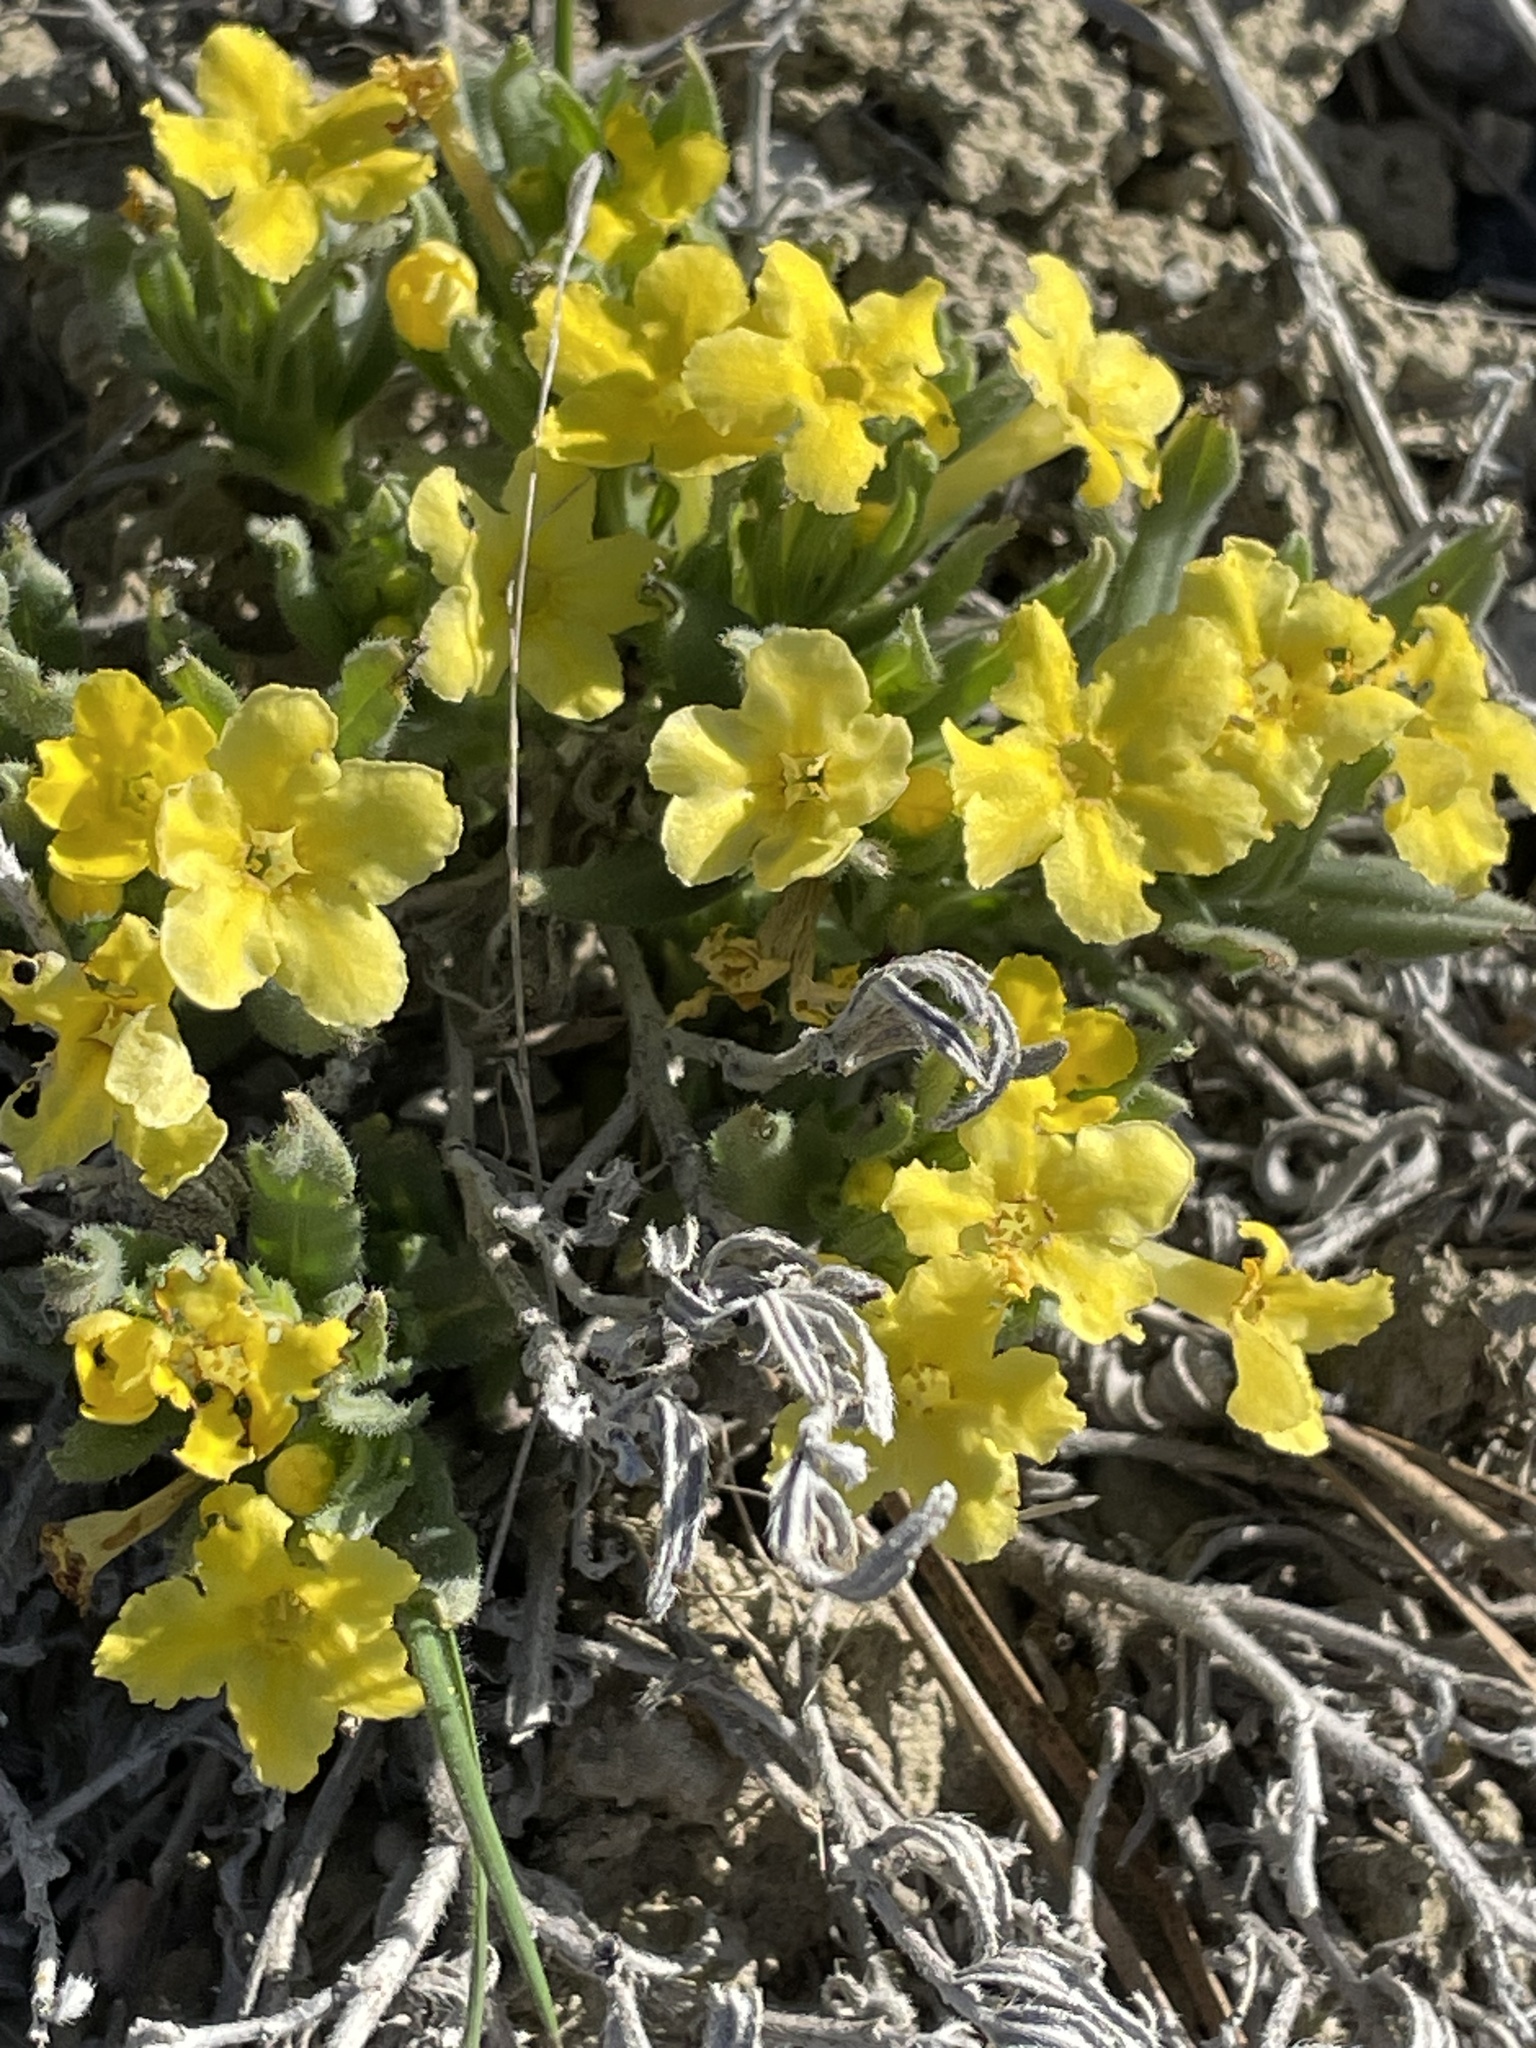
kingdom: Plantae
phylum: Tracheophyta
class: Magnoliopsida
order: Boraginales
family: Boraginaceae
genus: Lithospermum
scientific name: Lithospermum incisum
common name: Fringed gromwell
